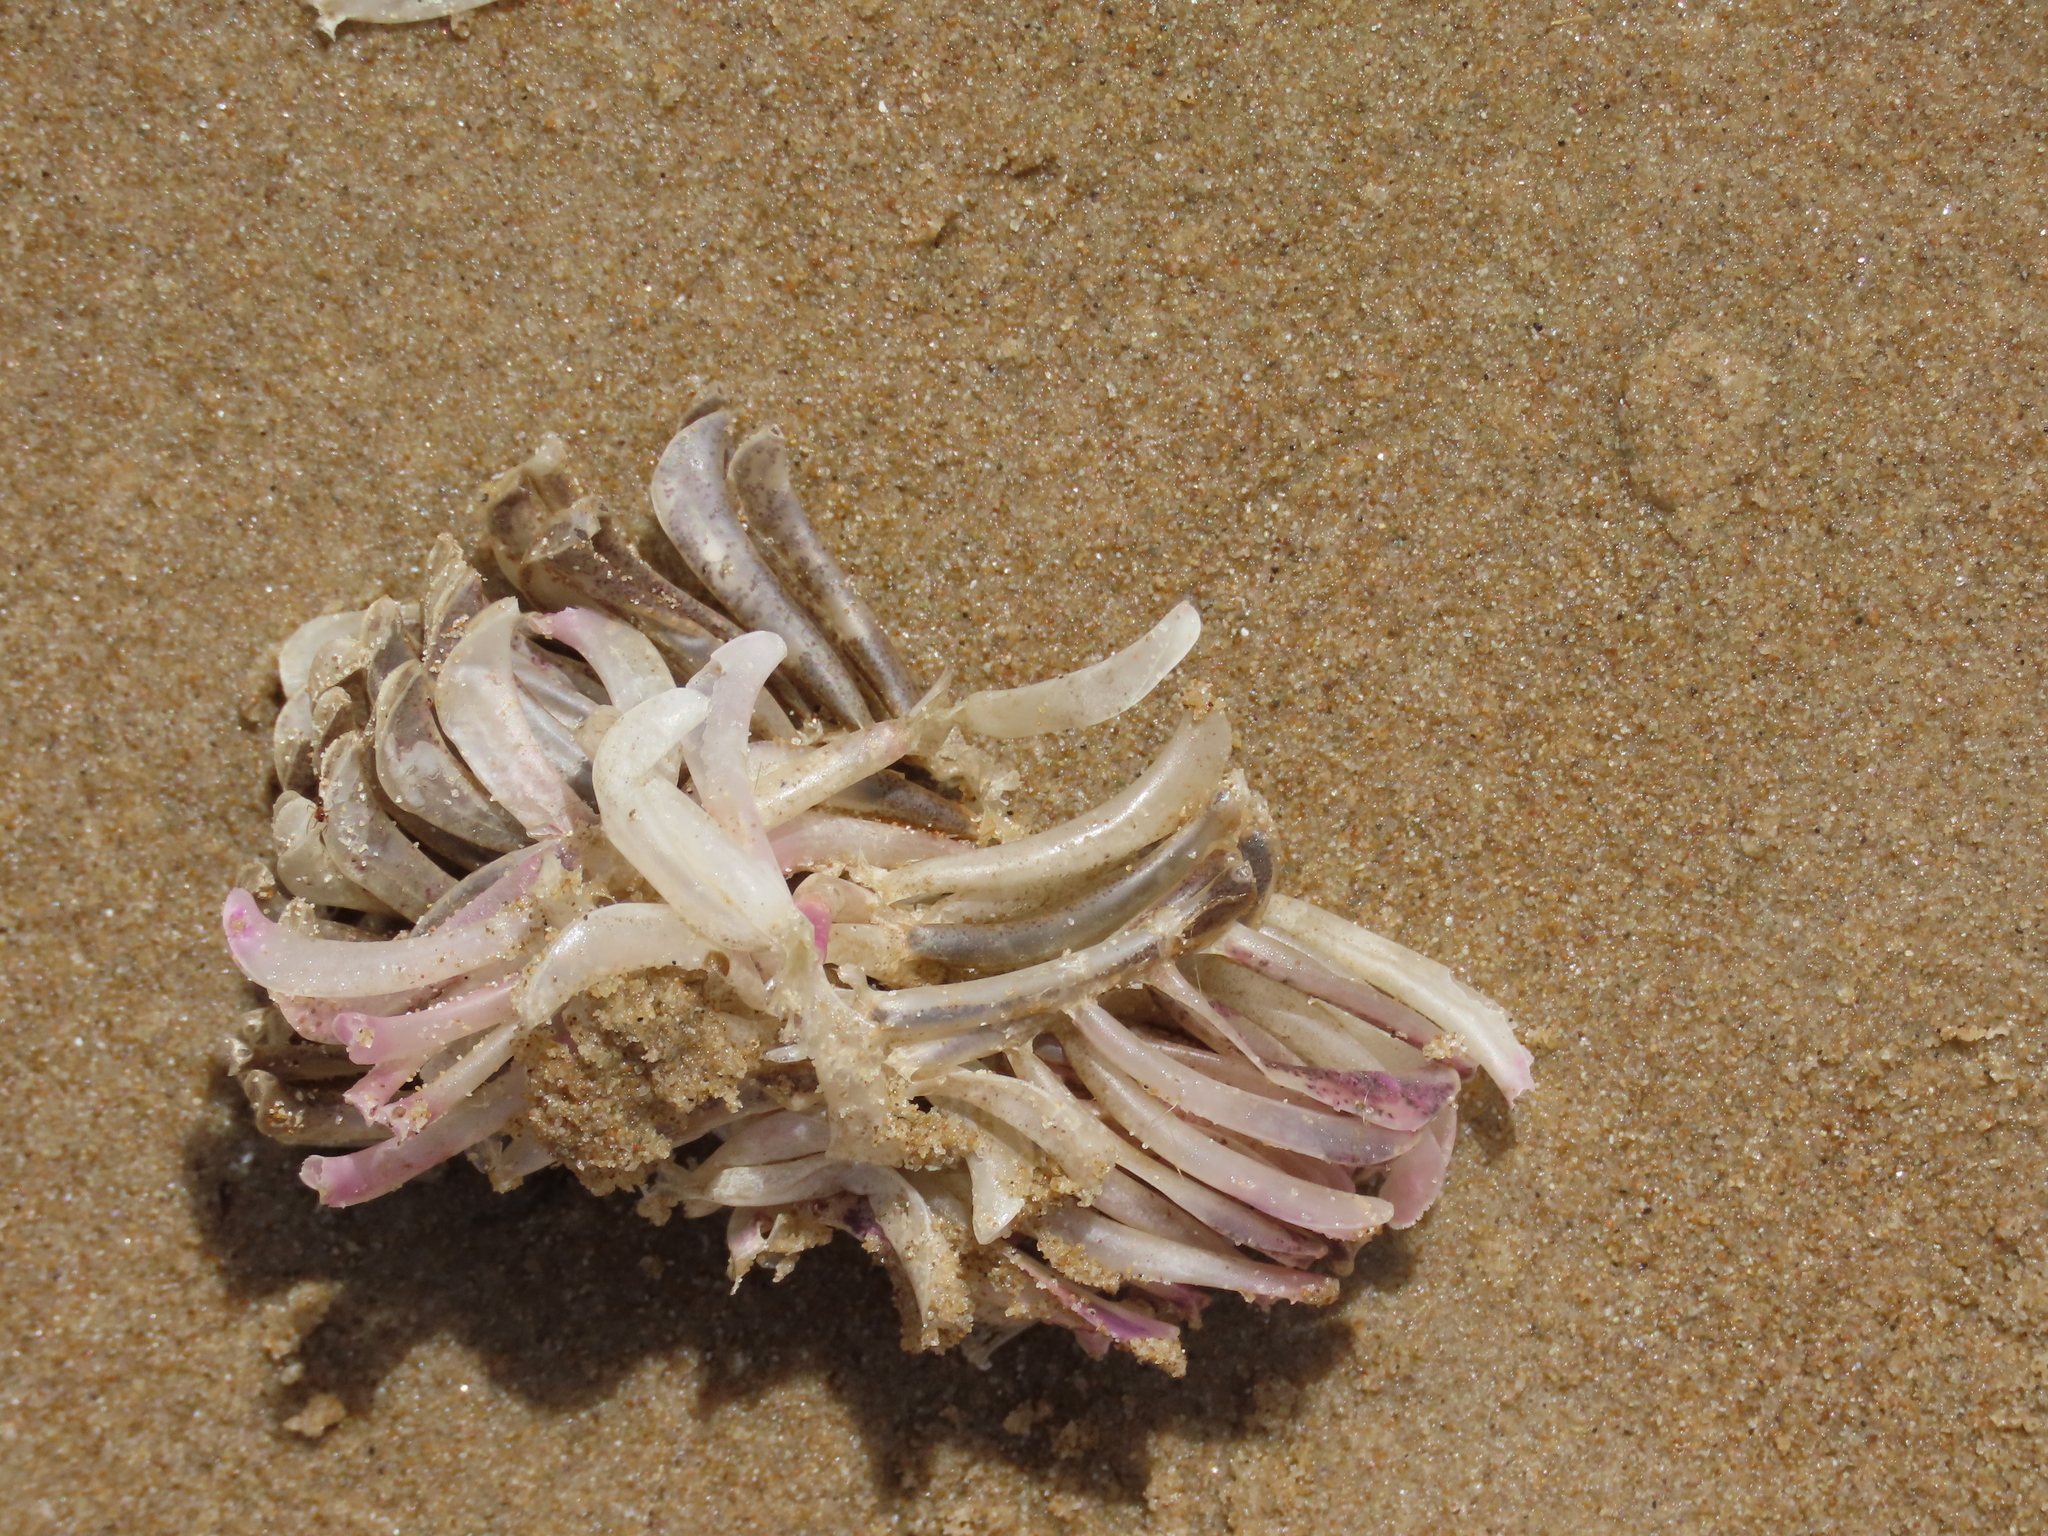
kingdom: Animalia
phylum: Mollusca
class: Gastropoda
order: Neogastropoda
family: Muricidae
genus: Rapana
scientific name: Rapana venosa
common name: Veined rapa whelk
